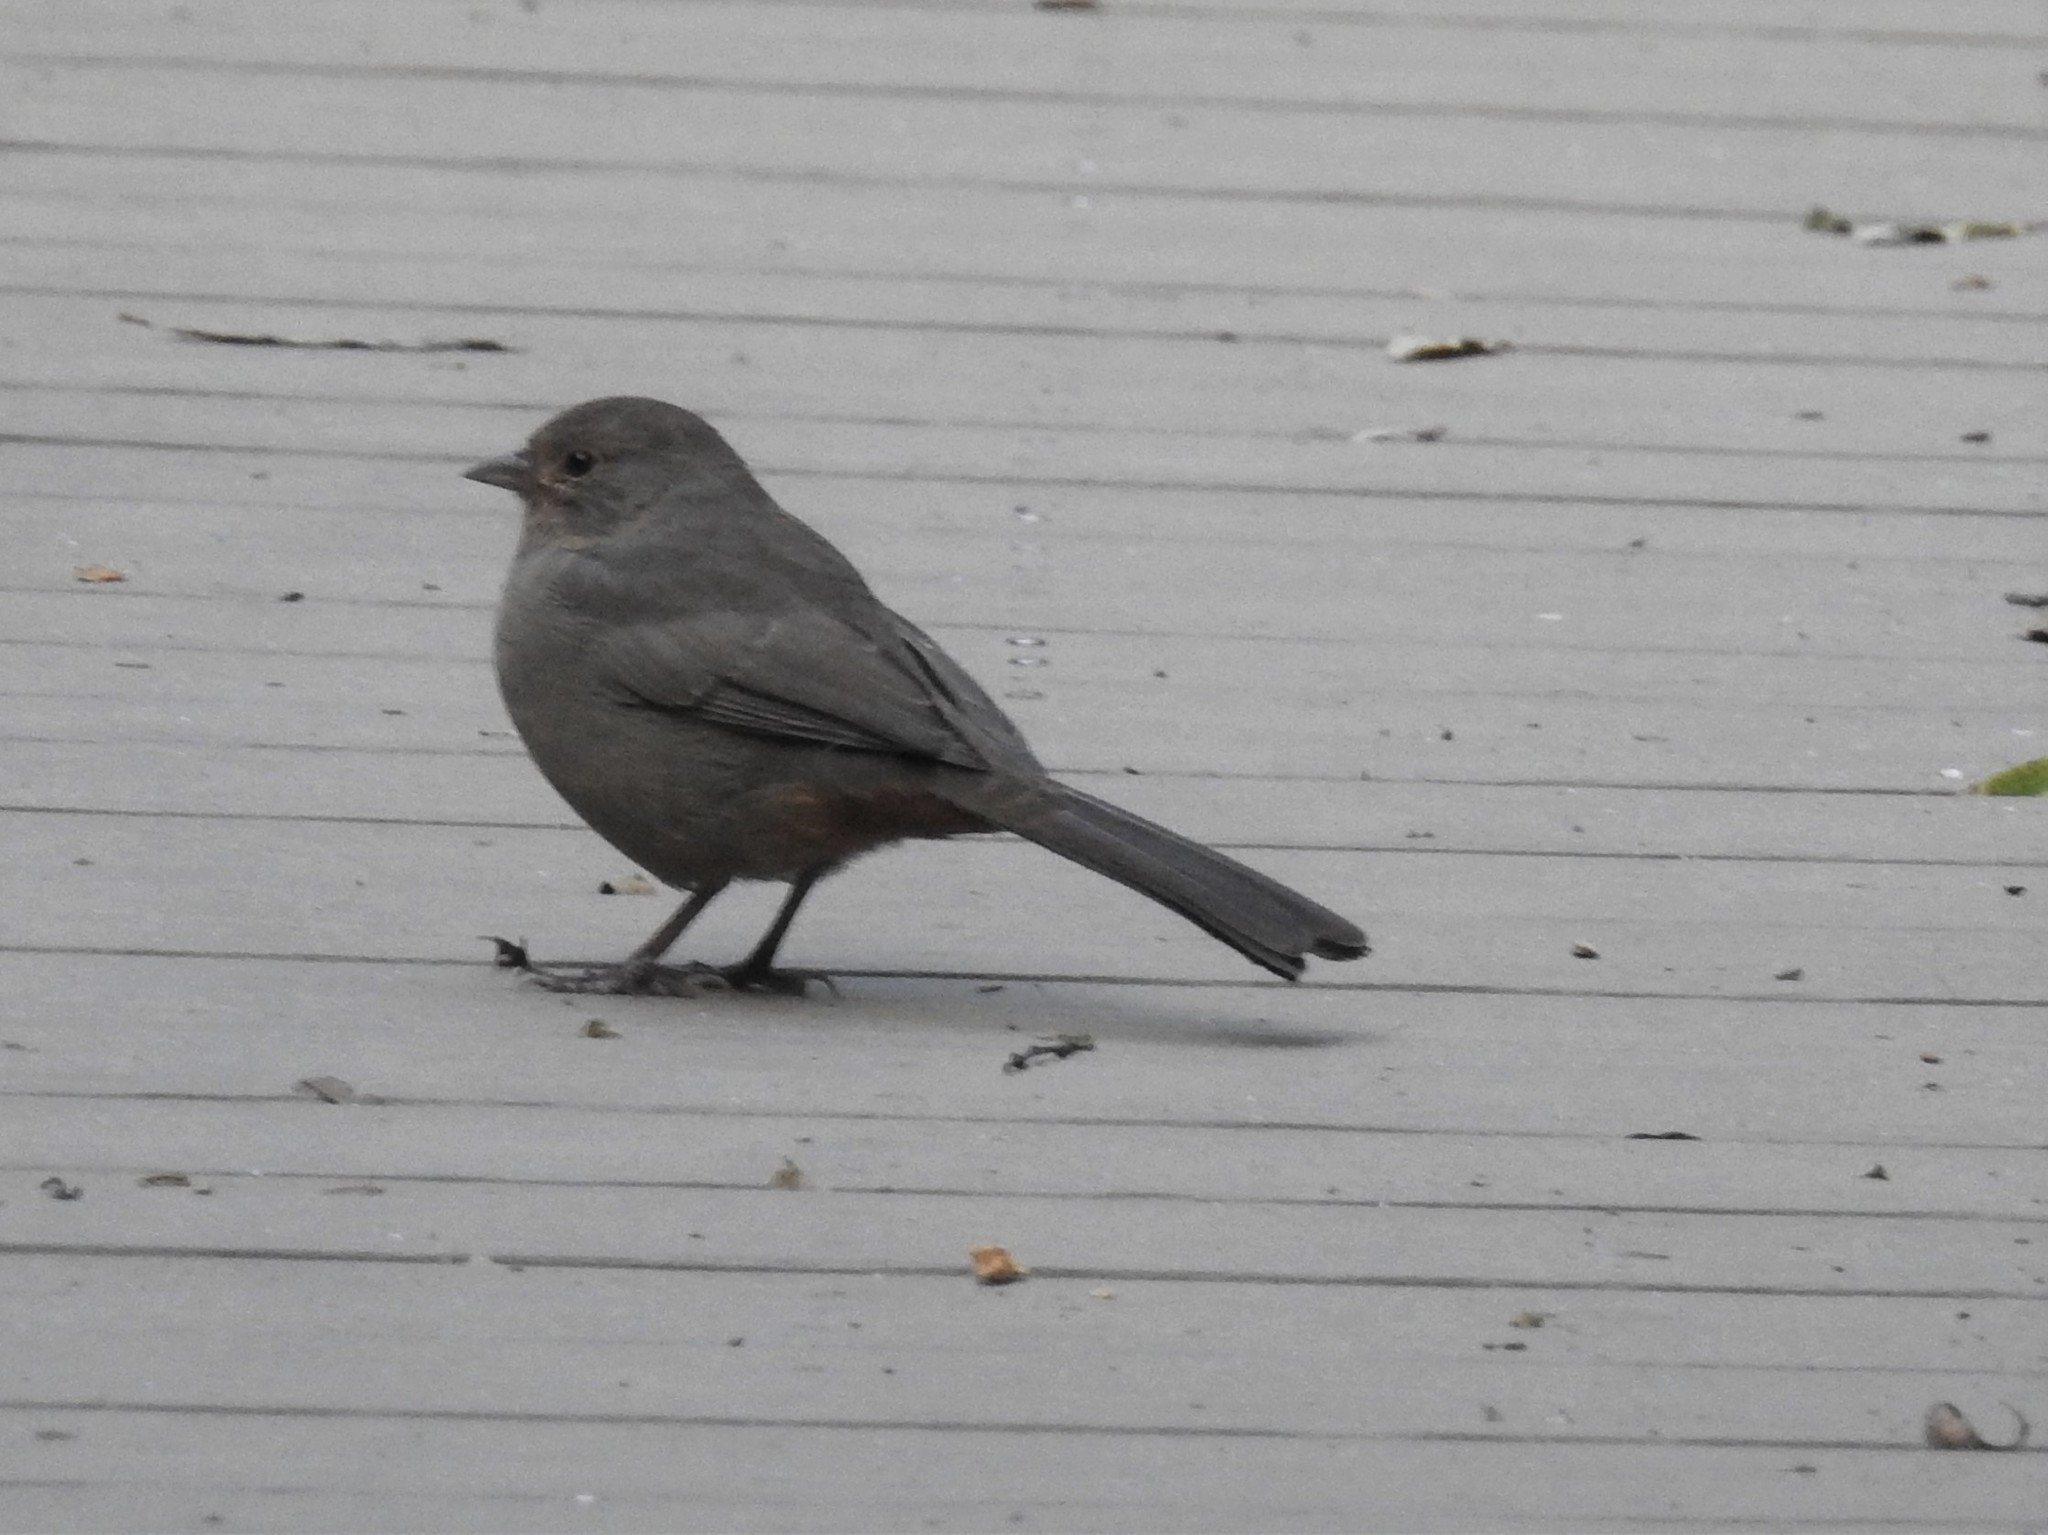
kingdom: Animalia
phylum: Chordata
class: Aves
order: Passeriformes
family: Passerellidae
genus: Melozone
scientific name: Melozone crissalis
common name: California towhee
